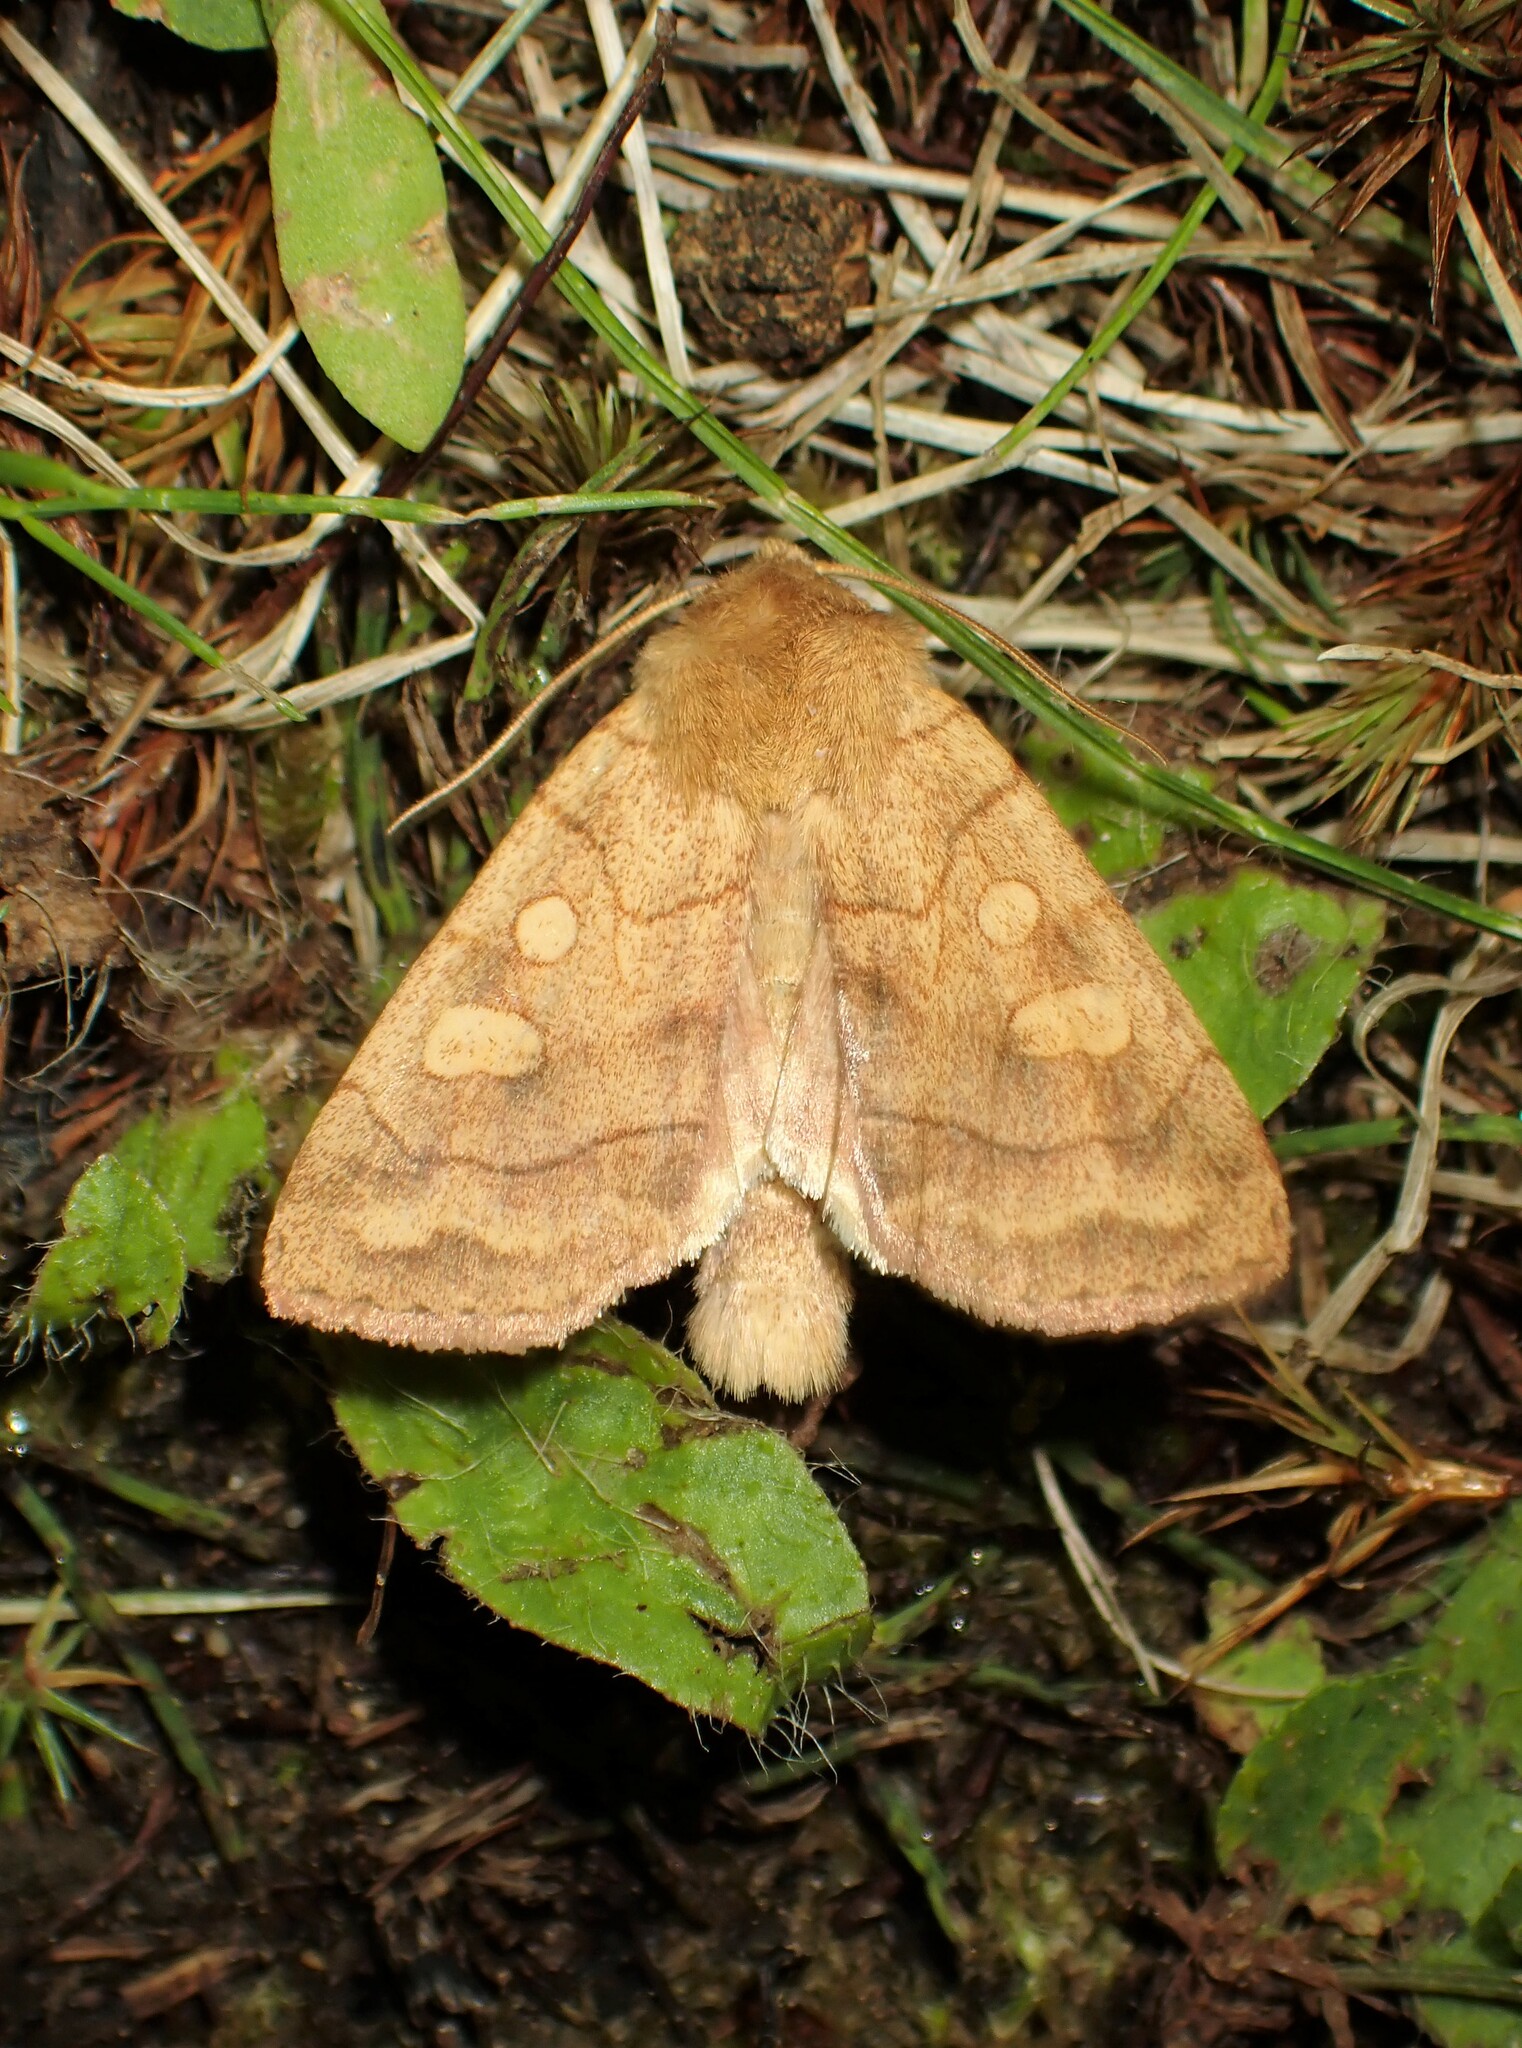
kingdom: Animalia
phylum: Arthropoda
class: Insecta
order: Lepidoptera
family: Noctuidae
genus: Enargia
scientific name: Enargia decolor
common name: Aspen twoleaf tier moth
